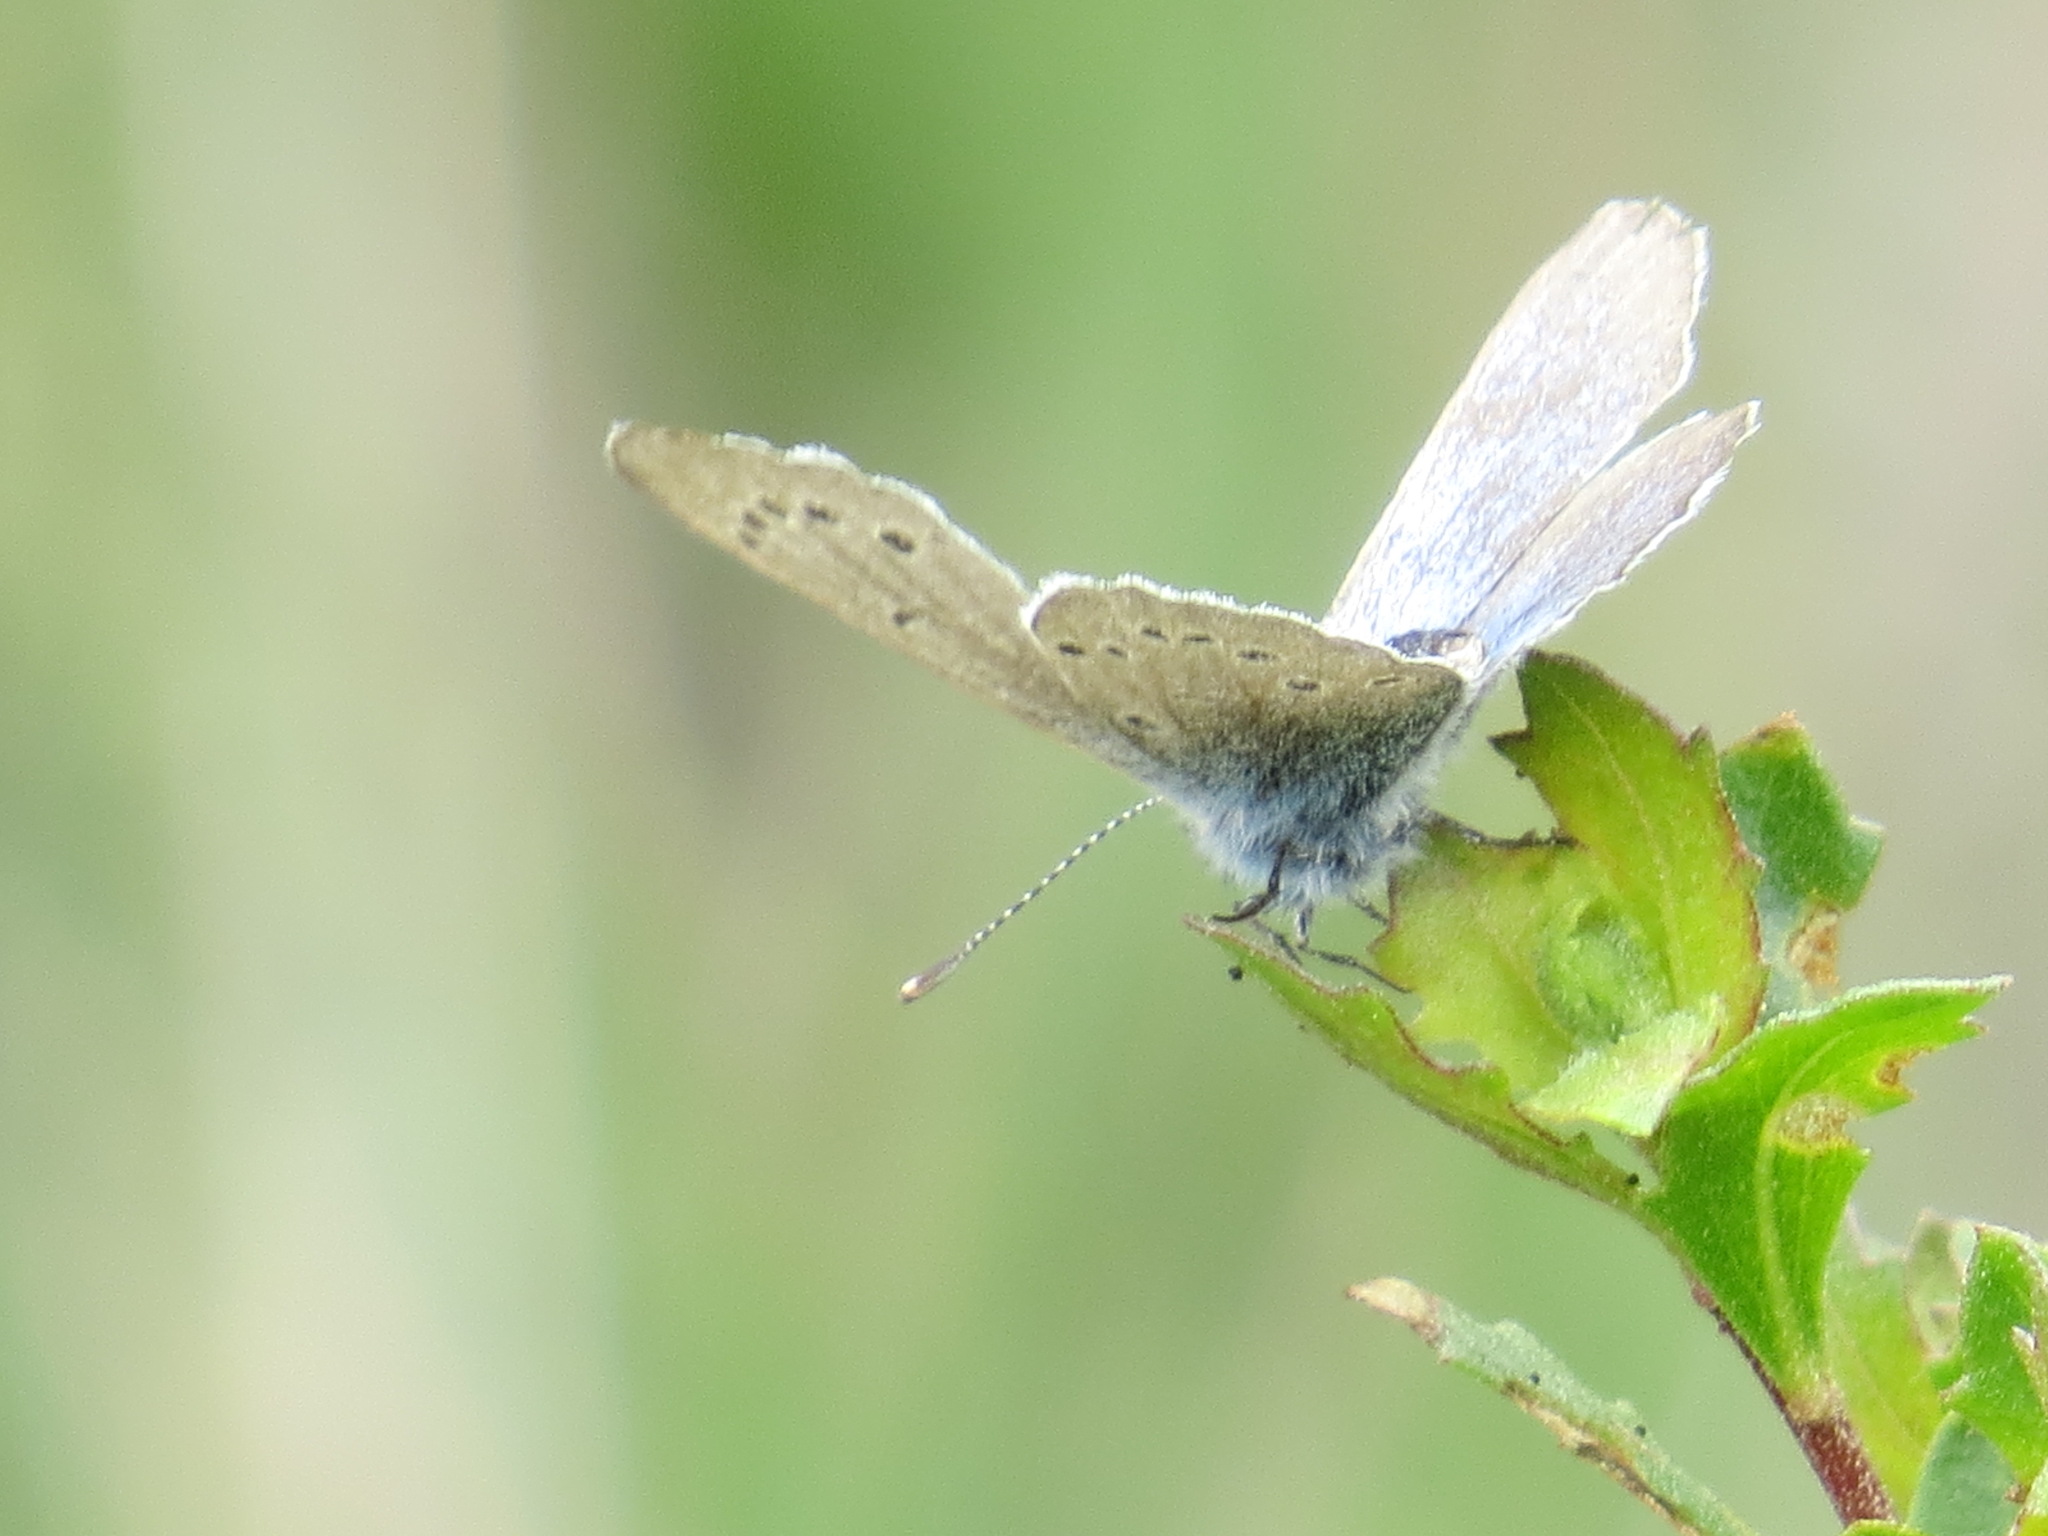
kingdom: Animalia
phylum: Arthropoda
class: Insecta
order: Lepidoptera
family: Lycaenidae
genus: Glaucopsyche
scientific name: Glaucopsyche lygdamus
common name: Silvery blue
